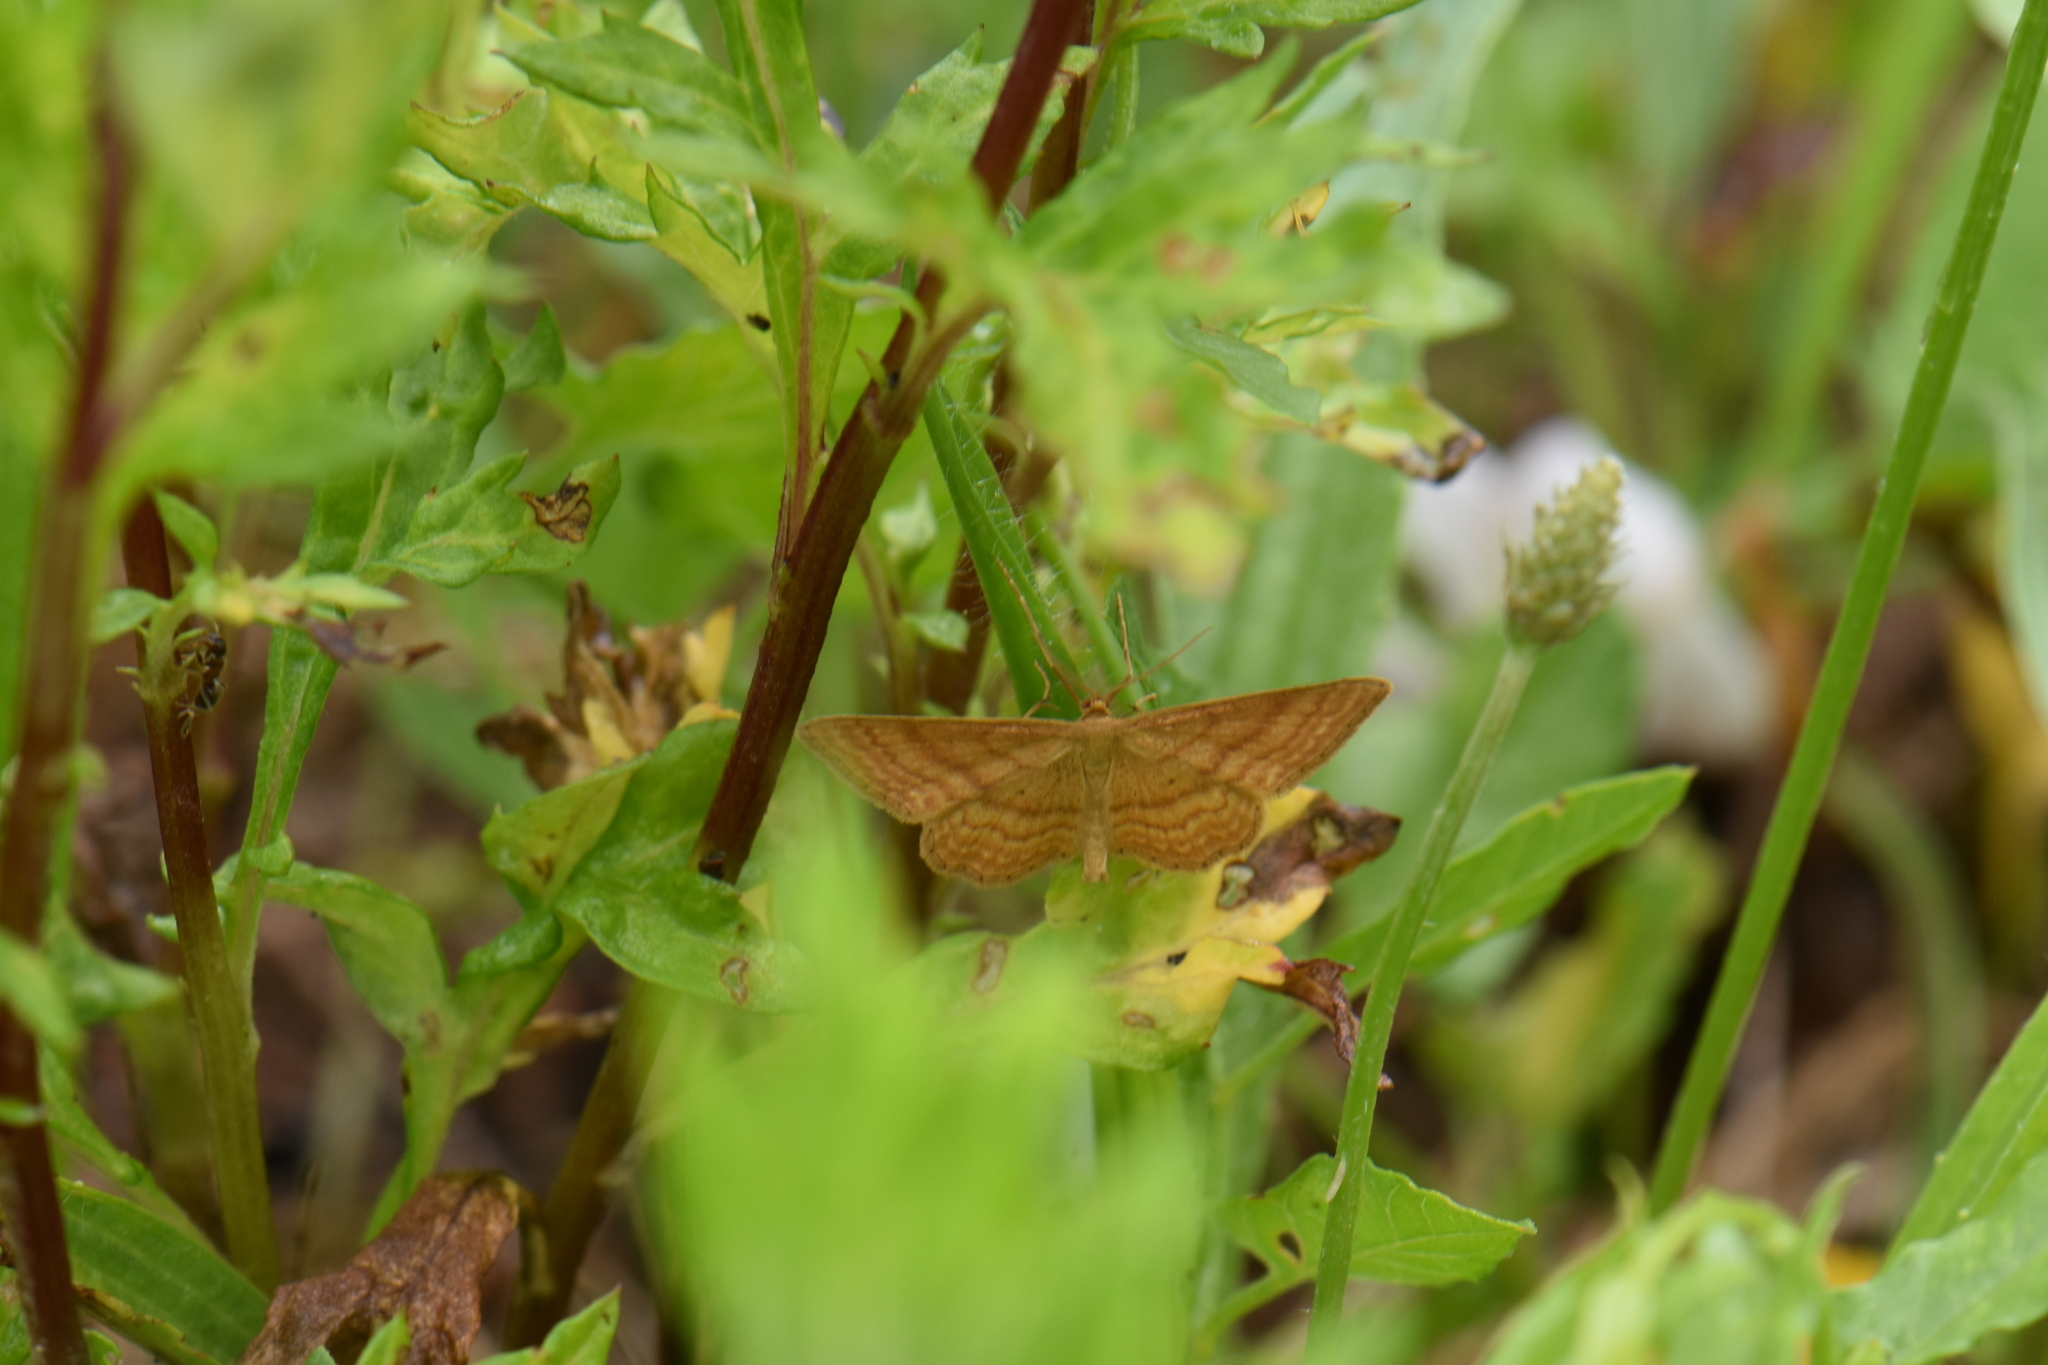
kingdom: Animalia
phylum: Arthropoda
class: Insecta
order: Lepidoptera
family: Geometridae
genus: Idaea
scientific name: Idaea ochrata
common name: Bright wave
